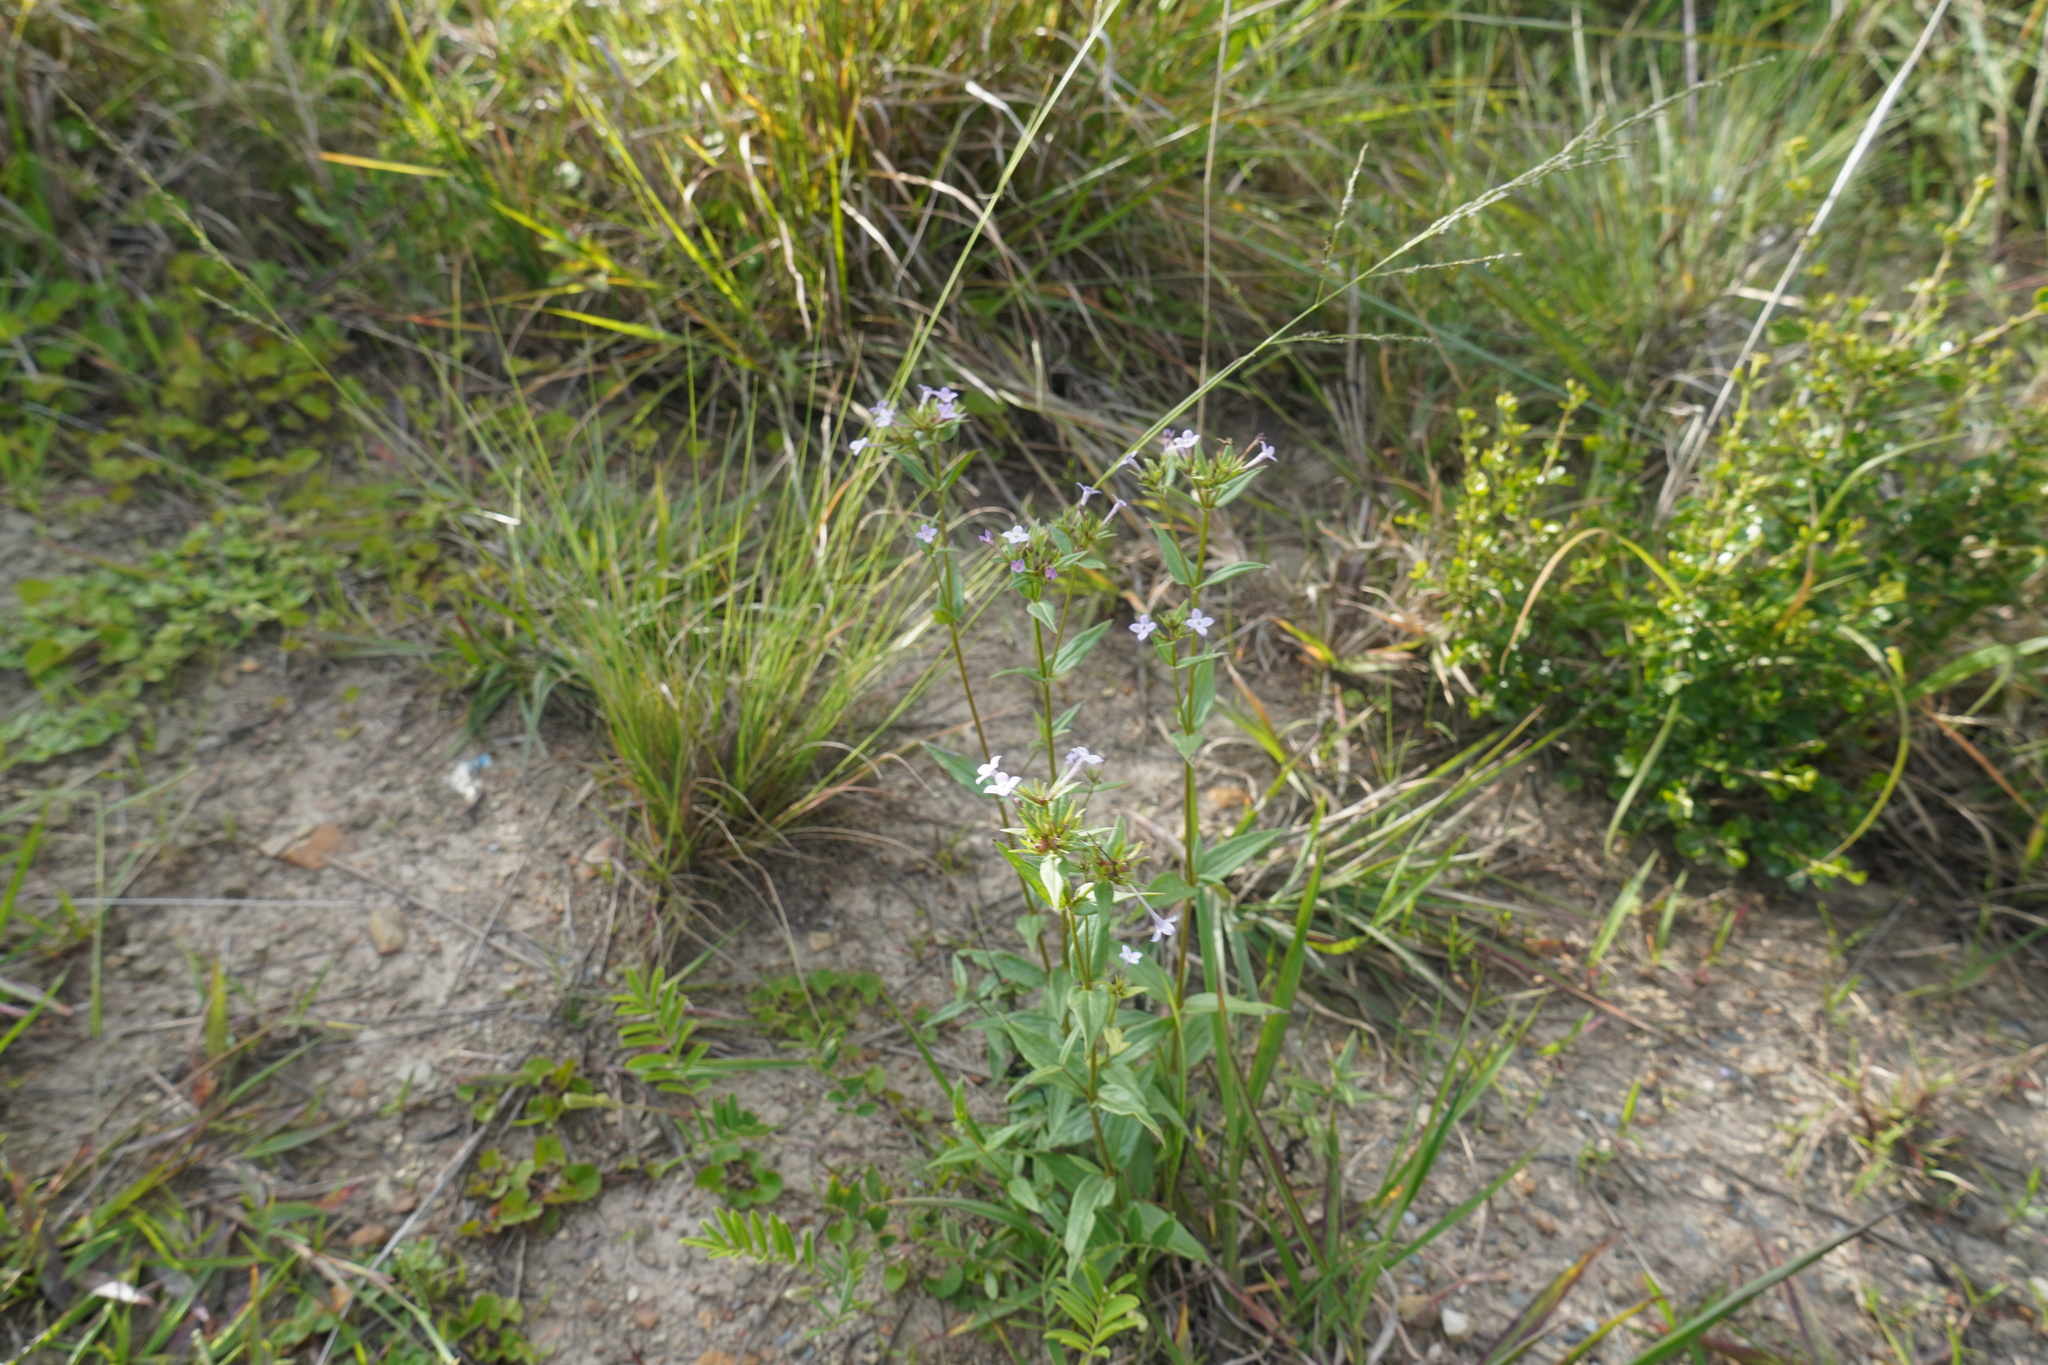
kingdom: Plantae
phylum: Tracheophyta
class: Magnoliopsida
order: Gentianales
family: Rubiaceae
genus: Conostomium
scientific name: Conostomium natalense
